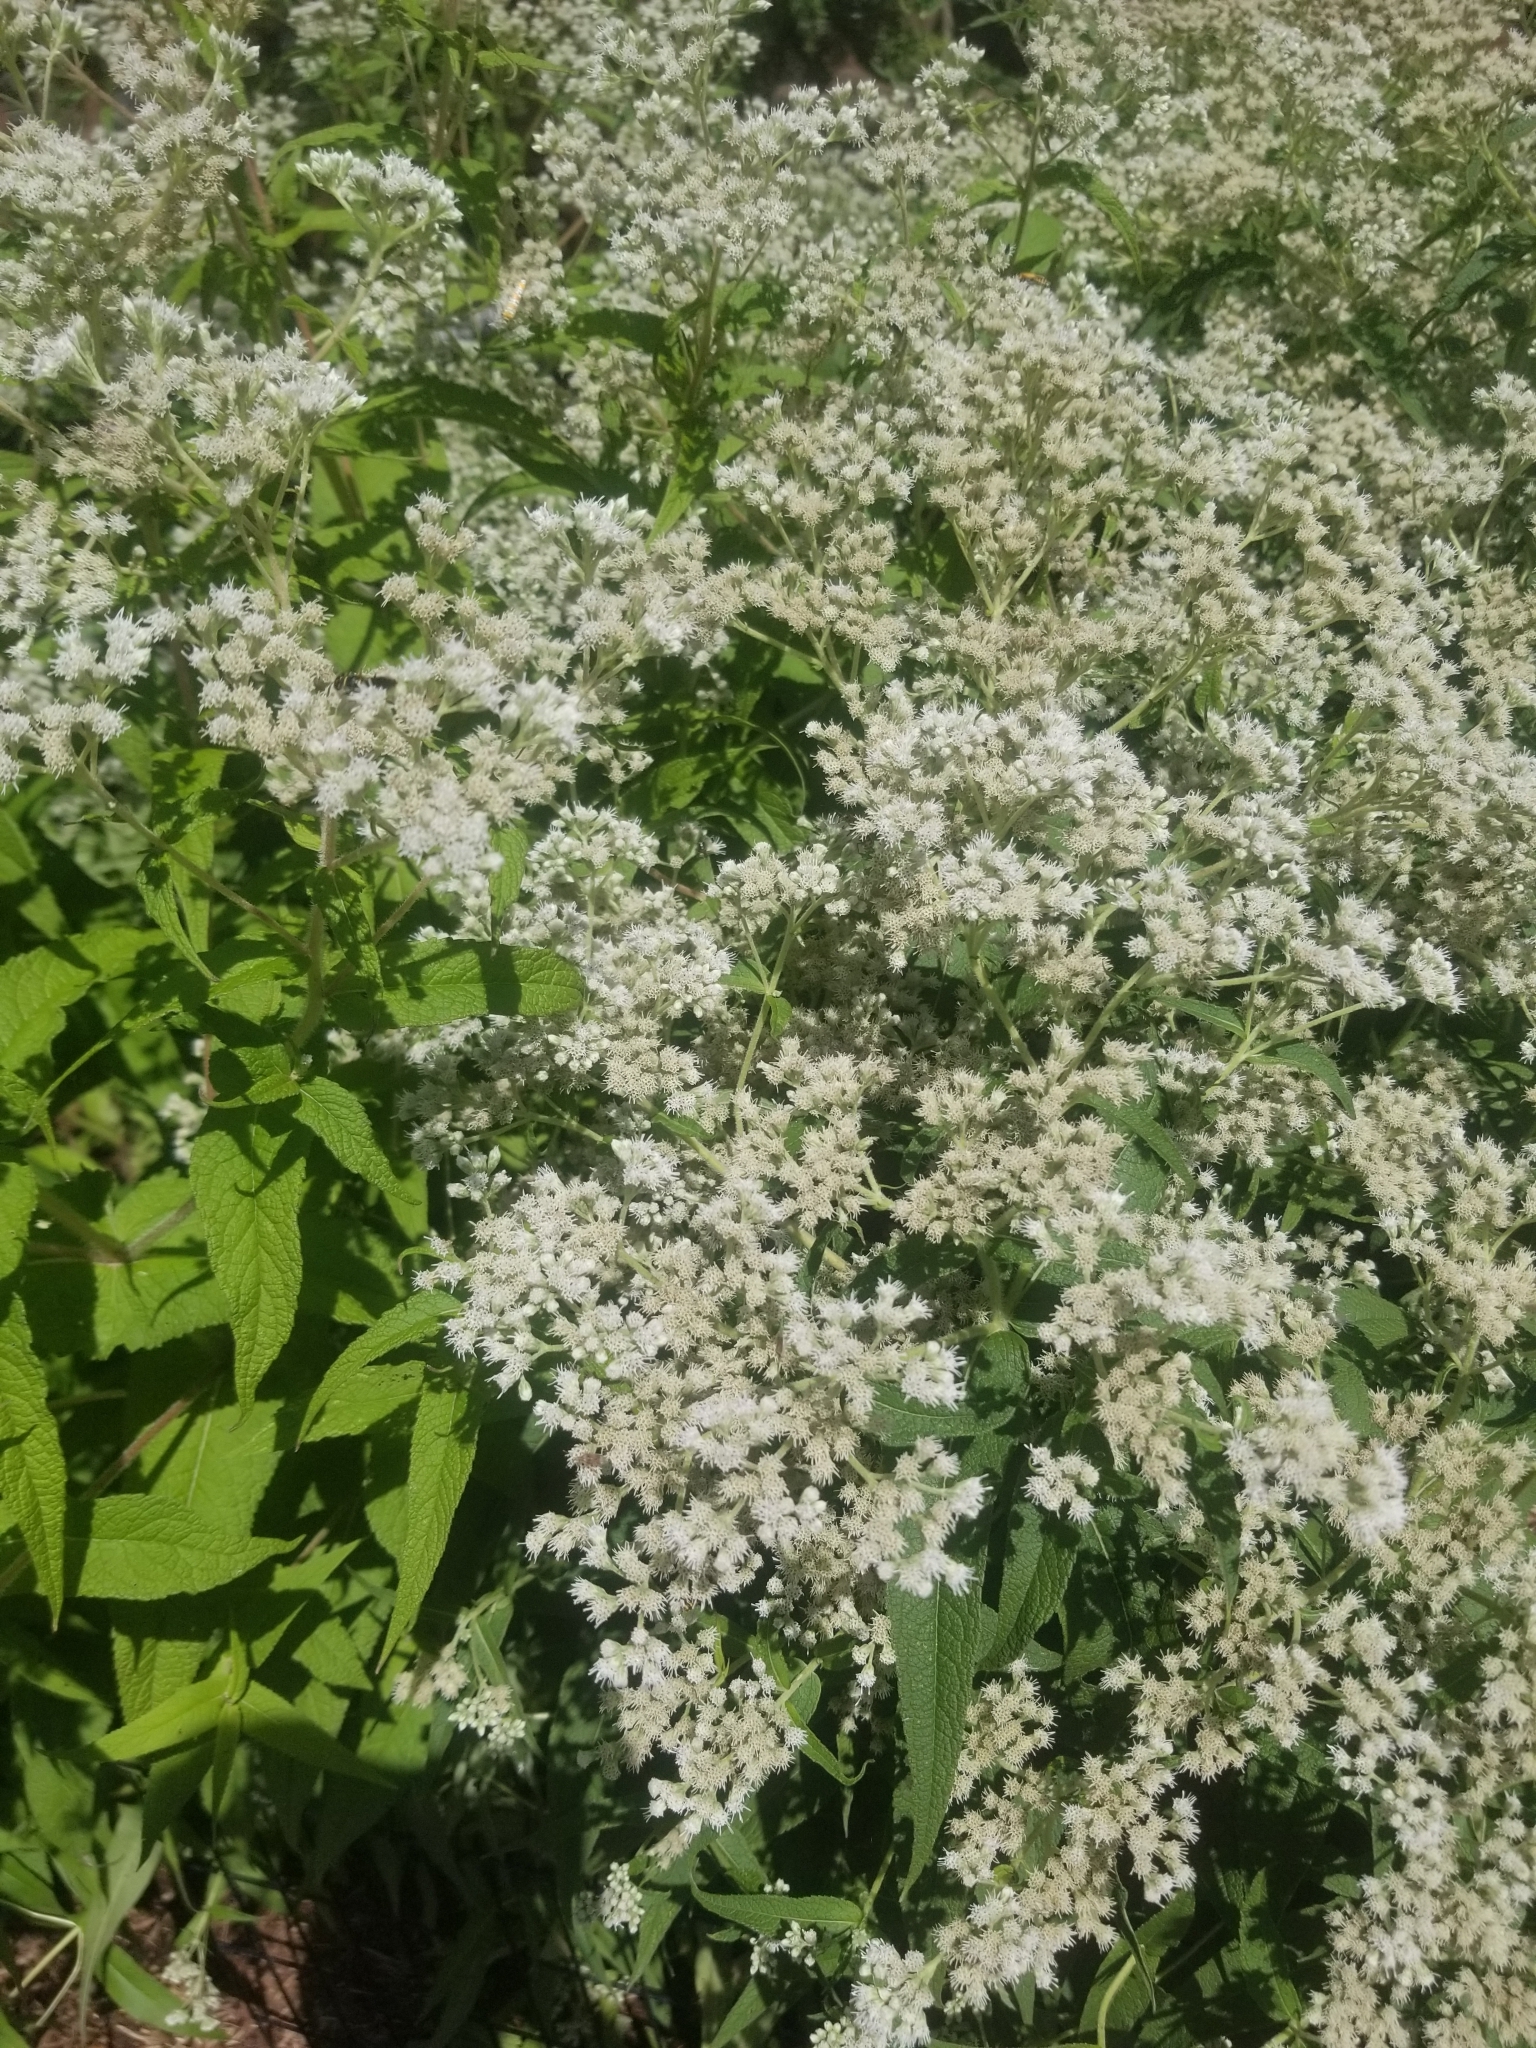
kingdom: Plantae
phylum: Tracheophyta
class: Magnoliopsida
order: Asterales
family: Asteraceae
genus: Eupatorium
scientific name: Eupatorium perfoliatum
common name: Boneset
